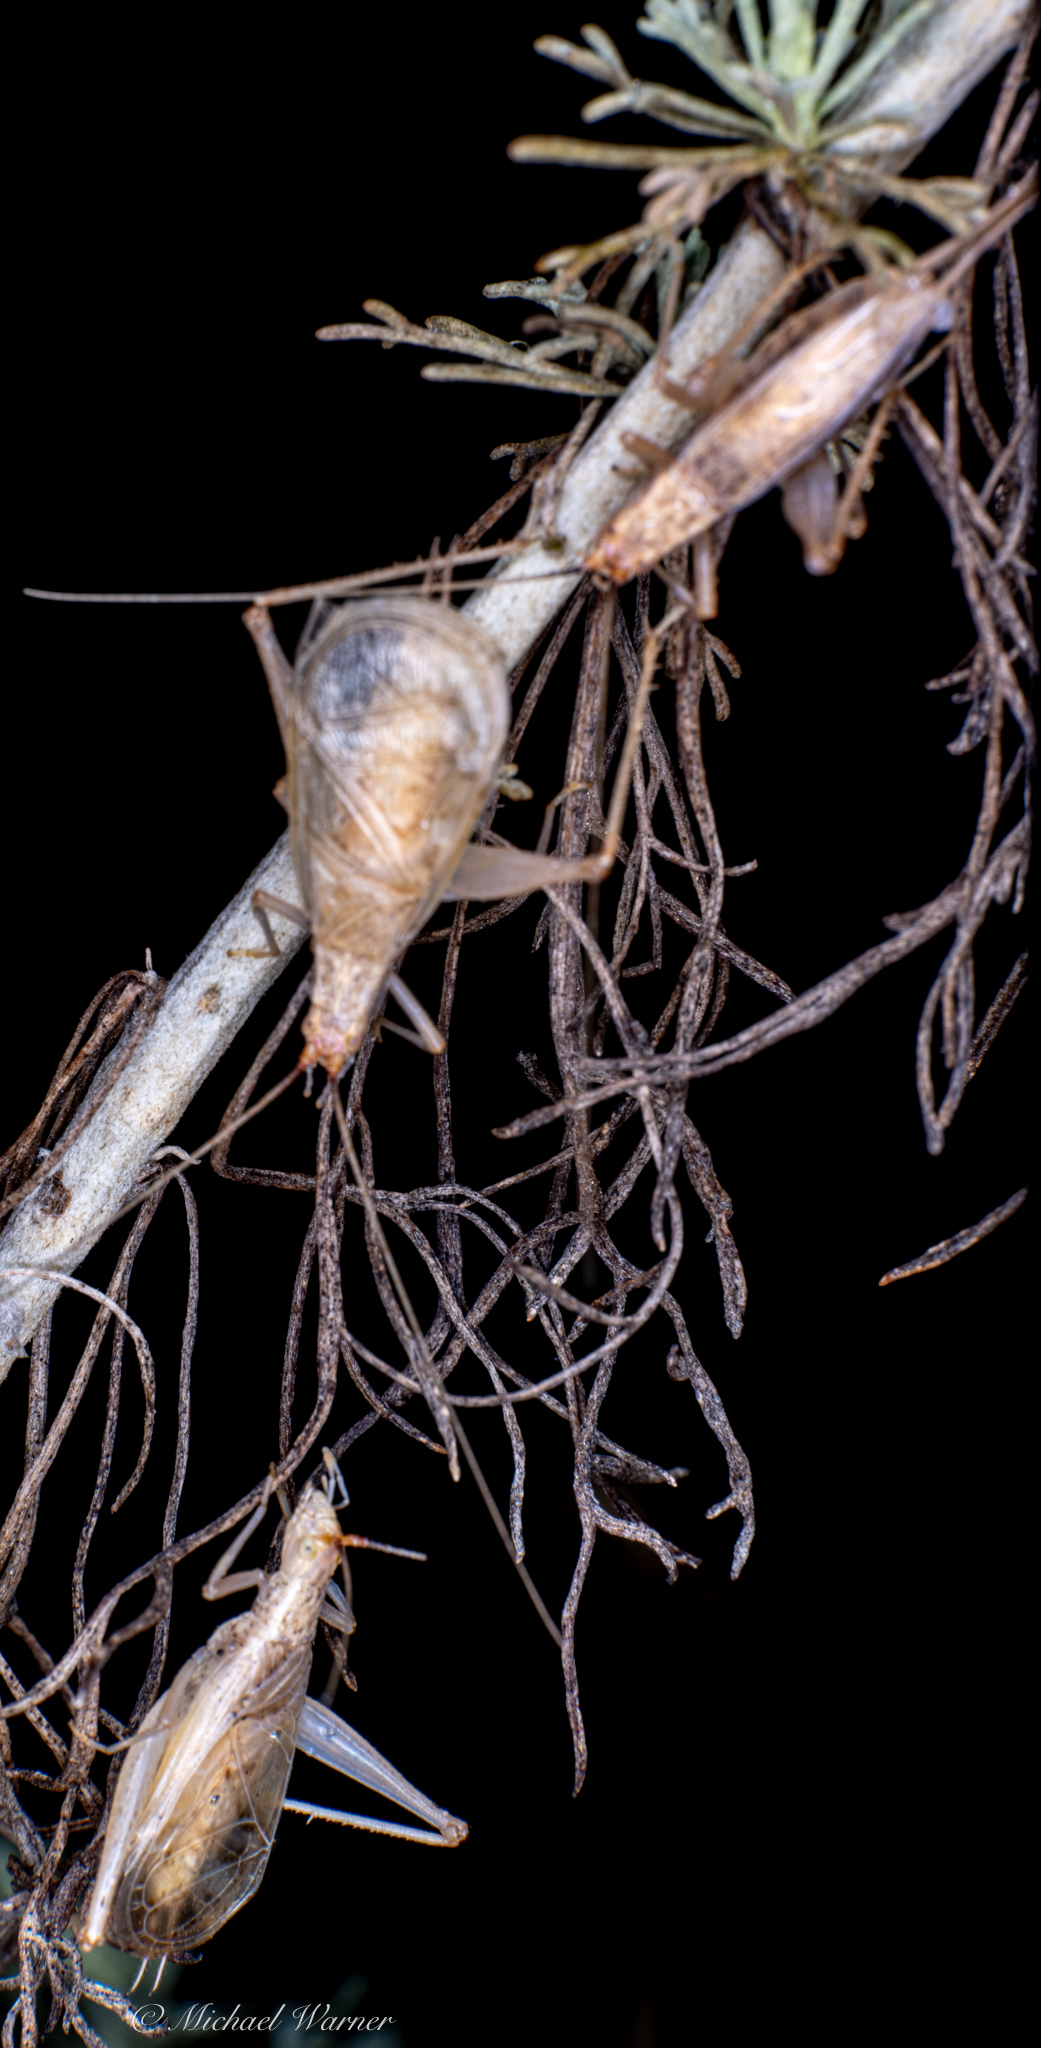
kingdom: Animalia
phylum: Arthropoda
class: Insecta
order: Orthoptera
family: Gryllidae
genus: Oecanthus
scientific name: Oecanthus californicus
